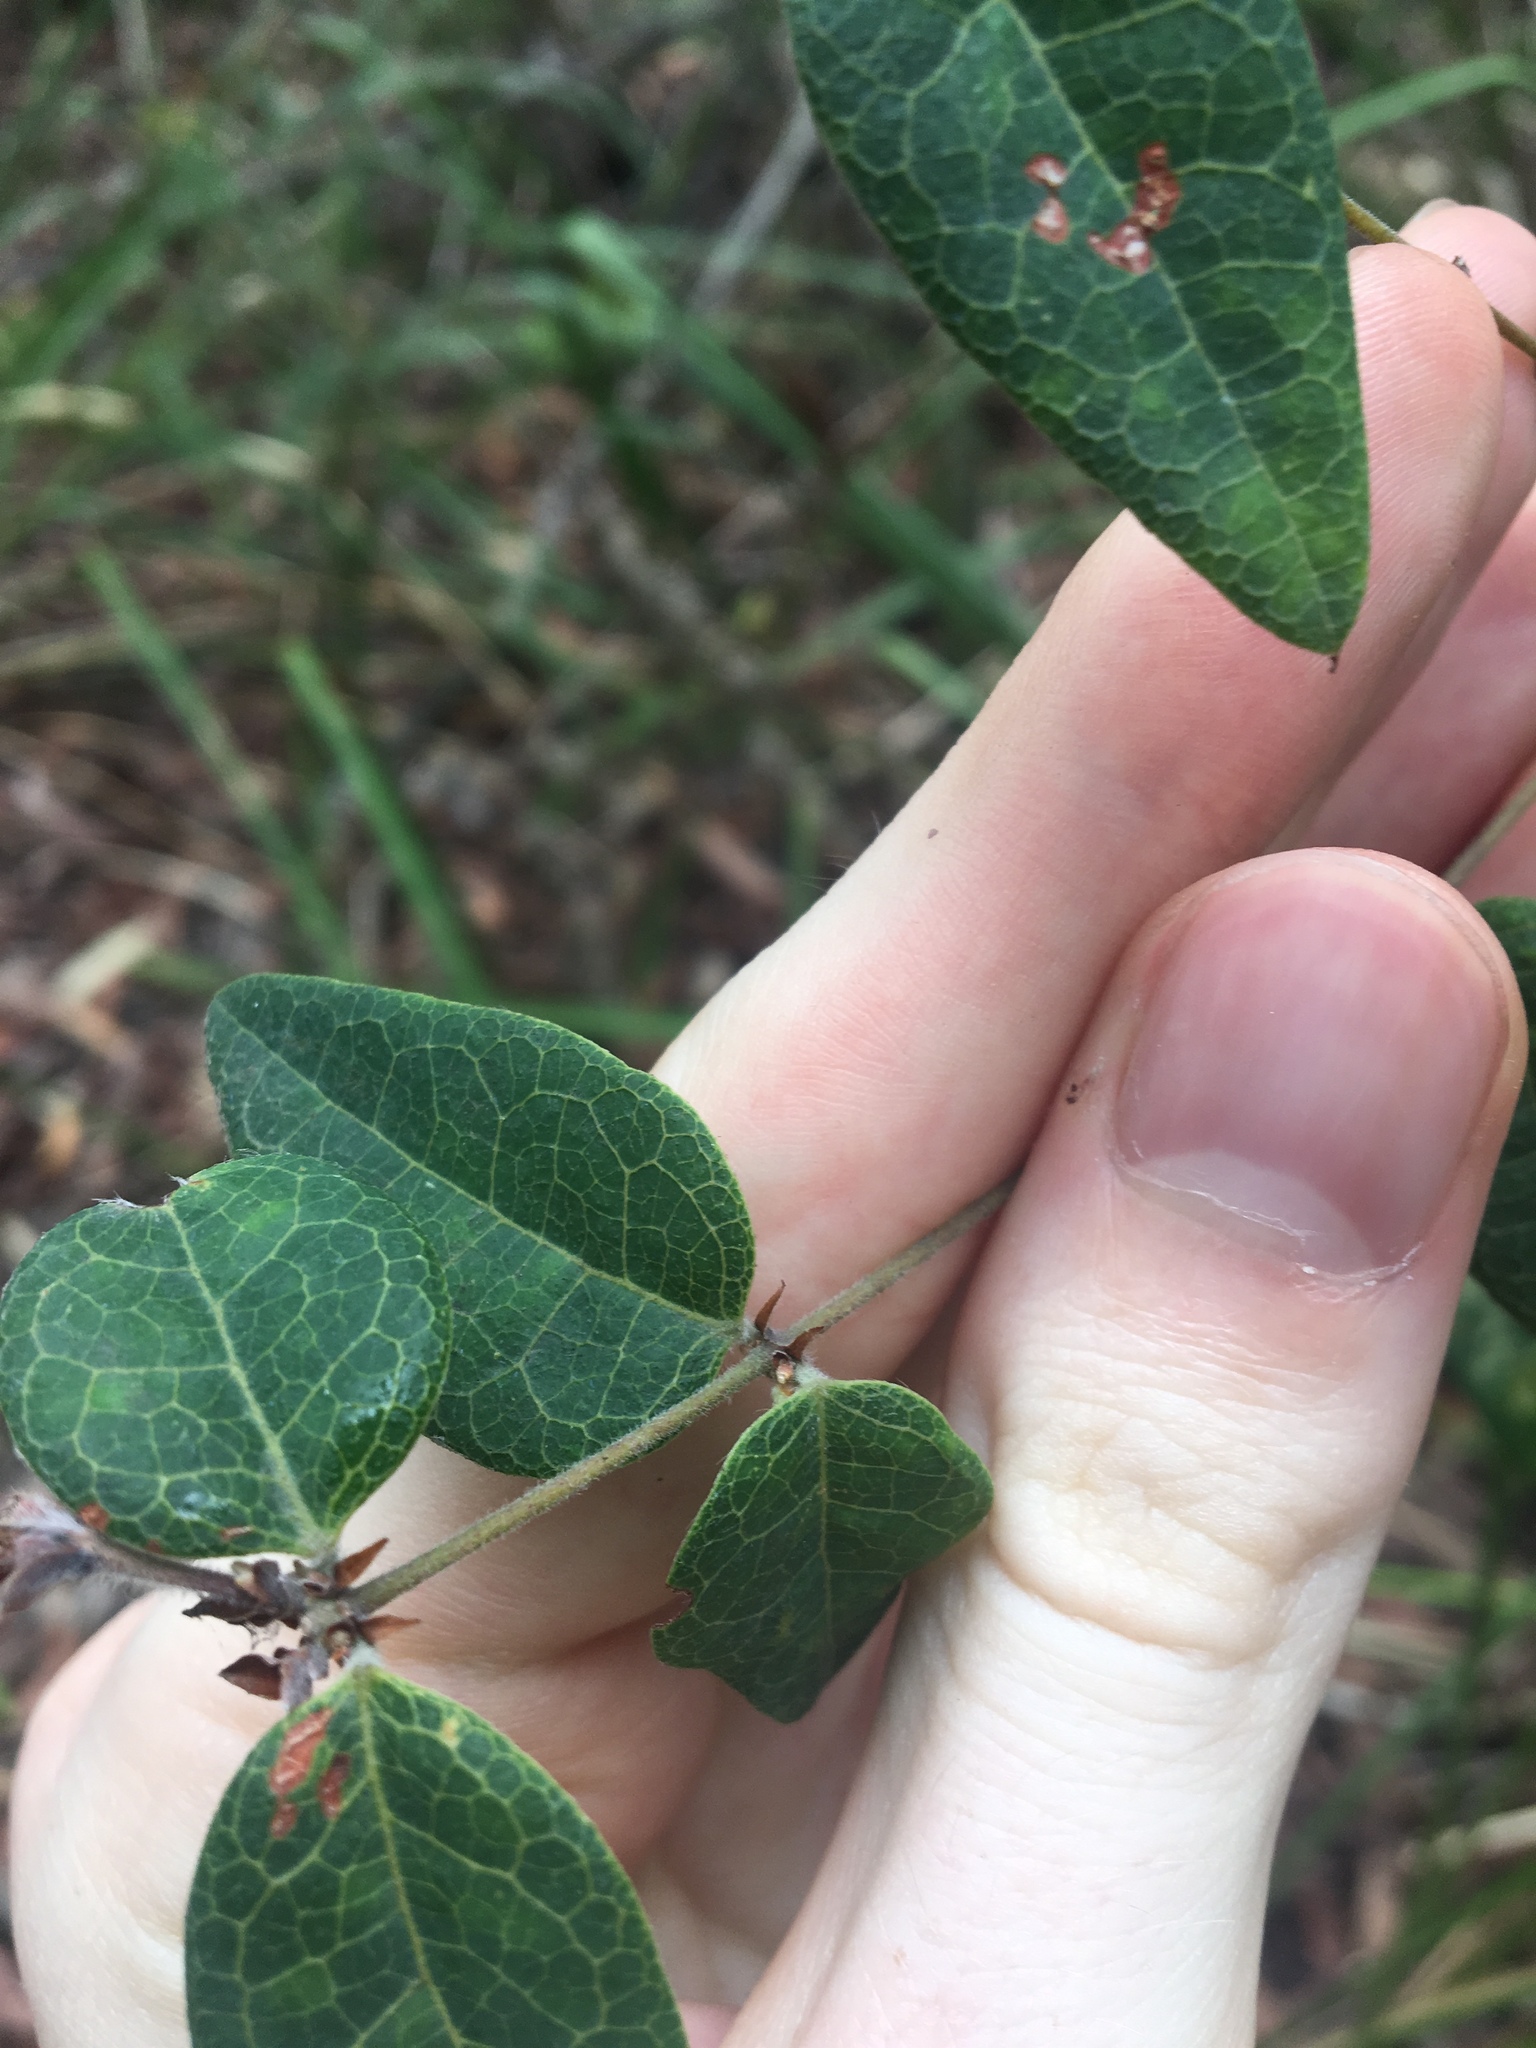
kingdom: Plantae
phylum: Tracheophyta
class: Magnoliopsida
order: Fabales
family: Fabaceae
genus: Platylobium
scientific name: Platylobium formosum
